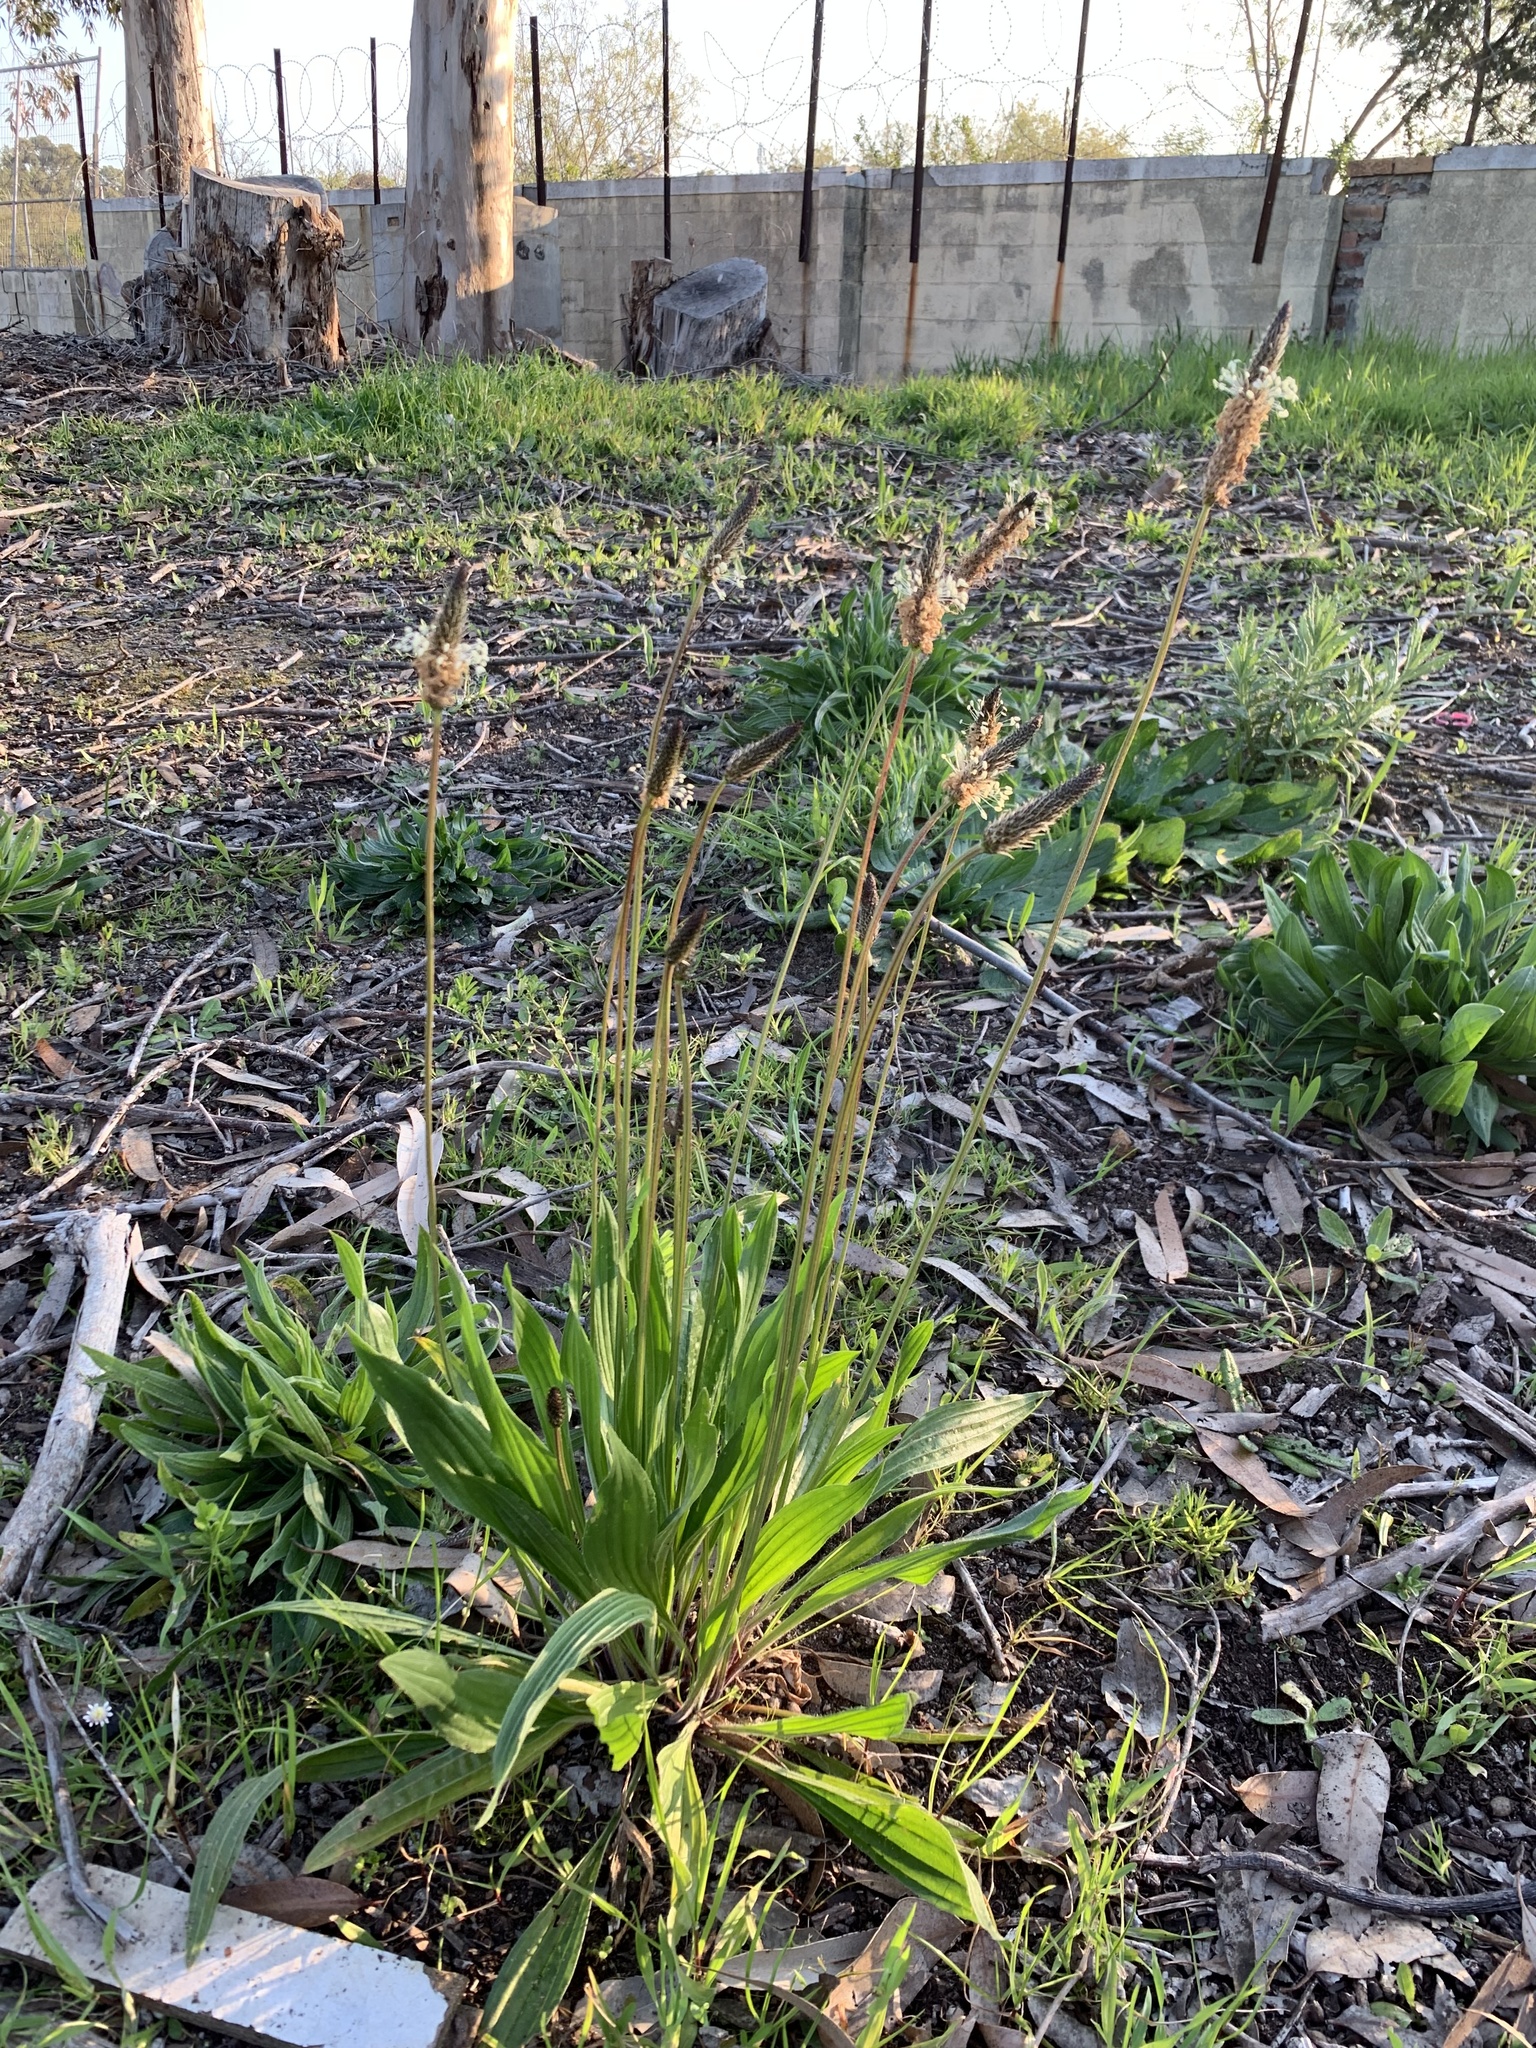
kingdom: Plantae
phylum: Tracheophyta
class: Magnoliopsida
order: Lamiales
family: Plantaginaceae
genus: Plantago
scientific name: Plantago lanceolata
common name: Ribwort plantain
